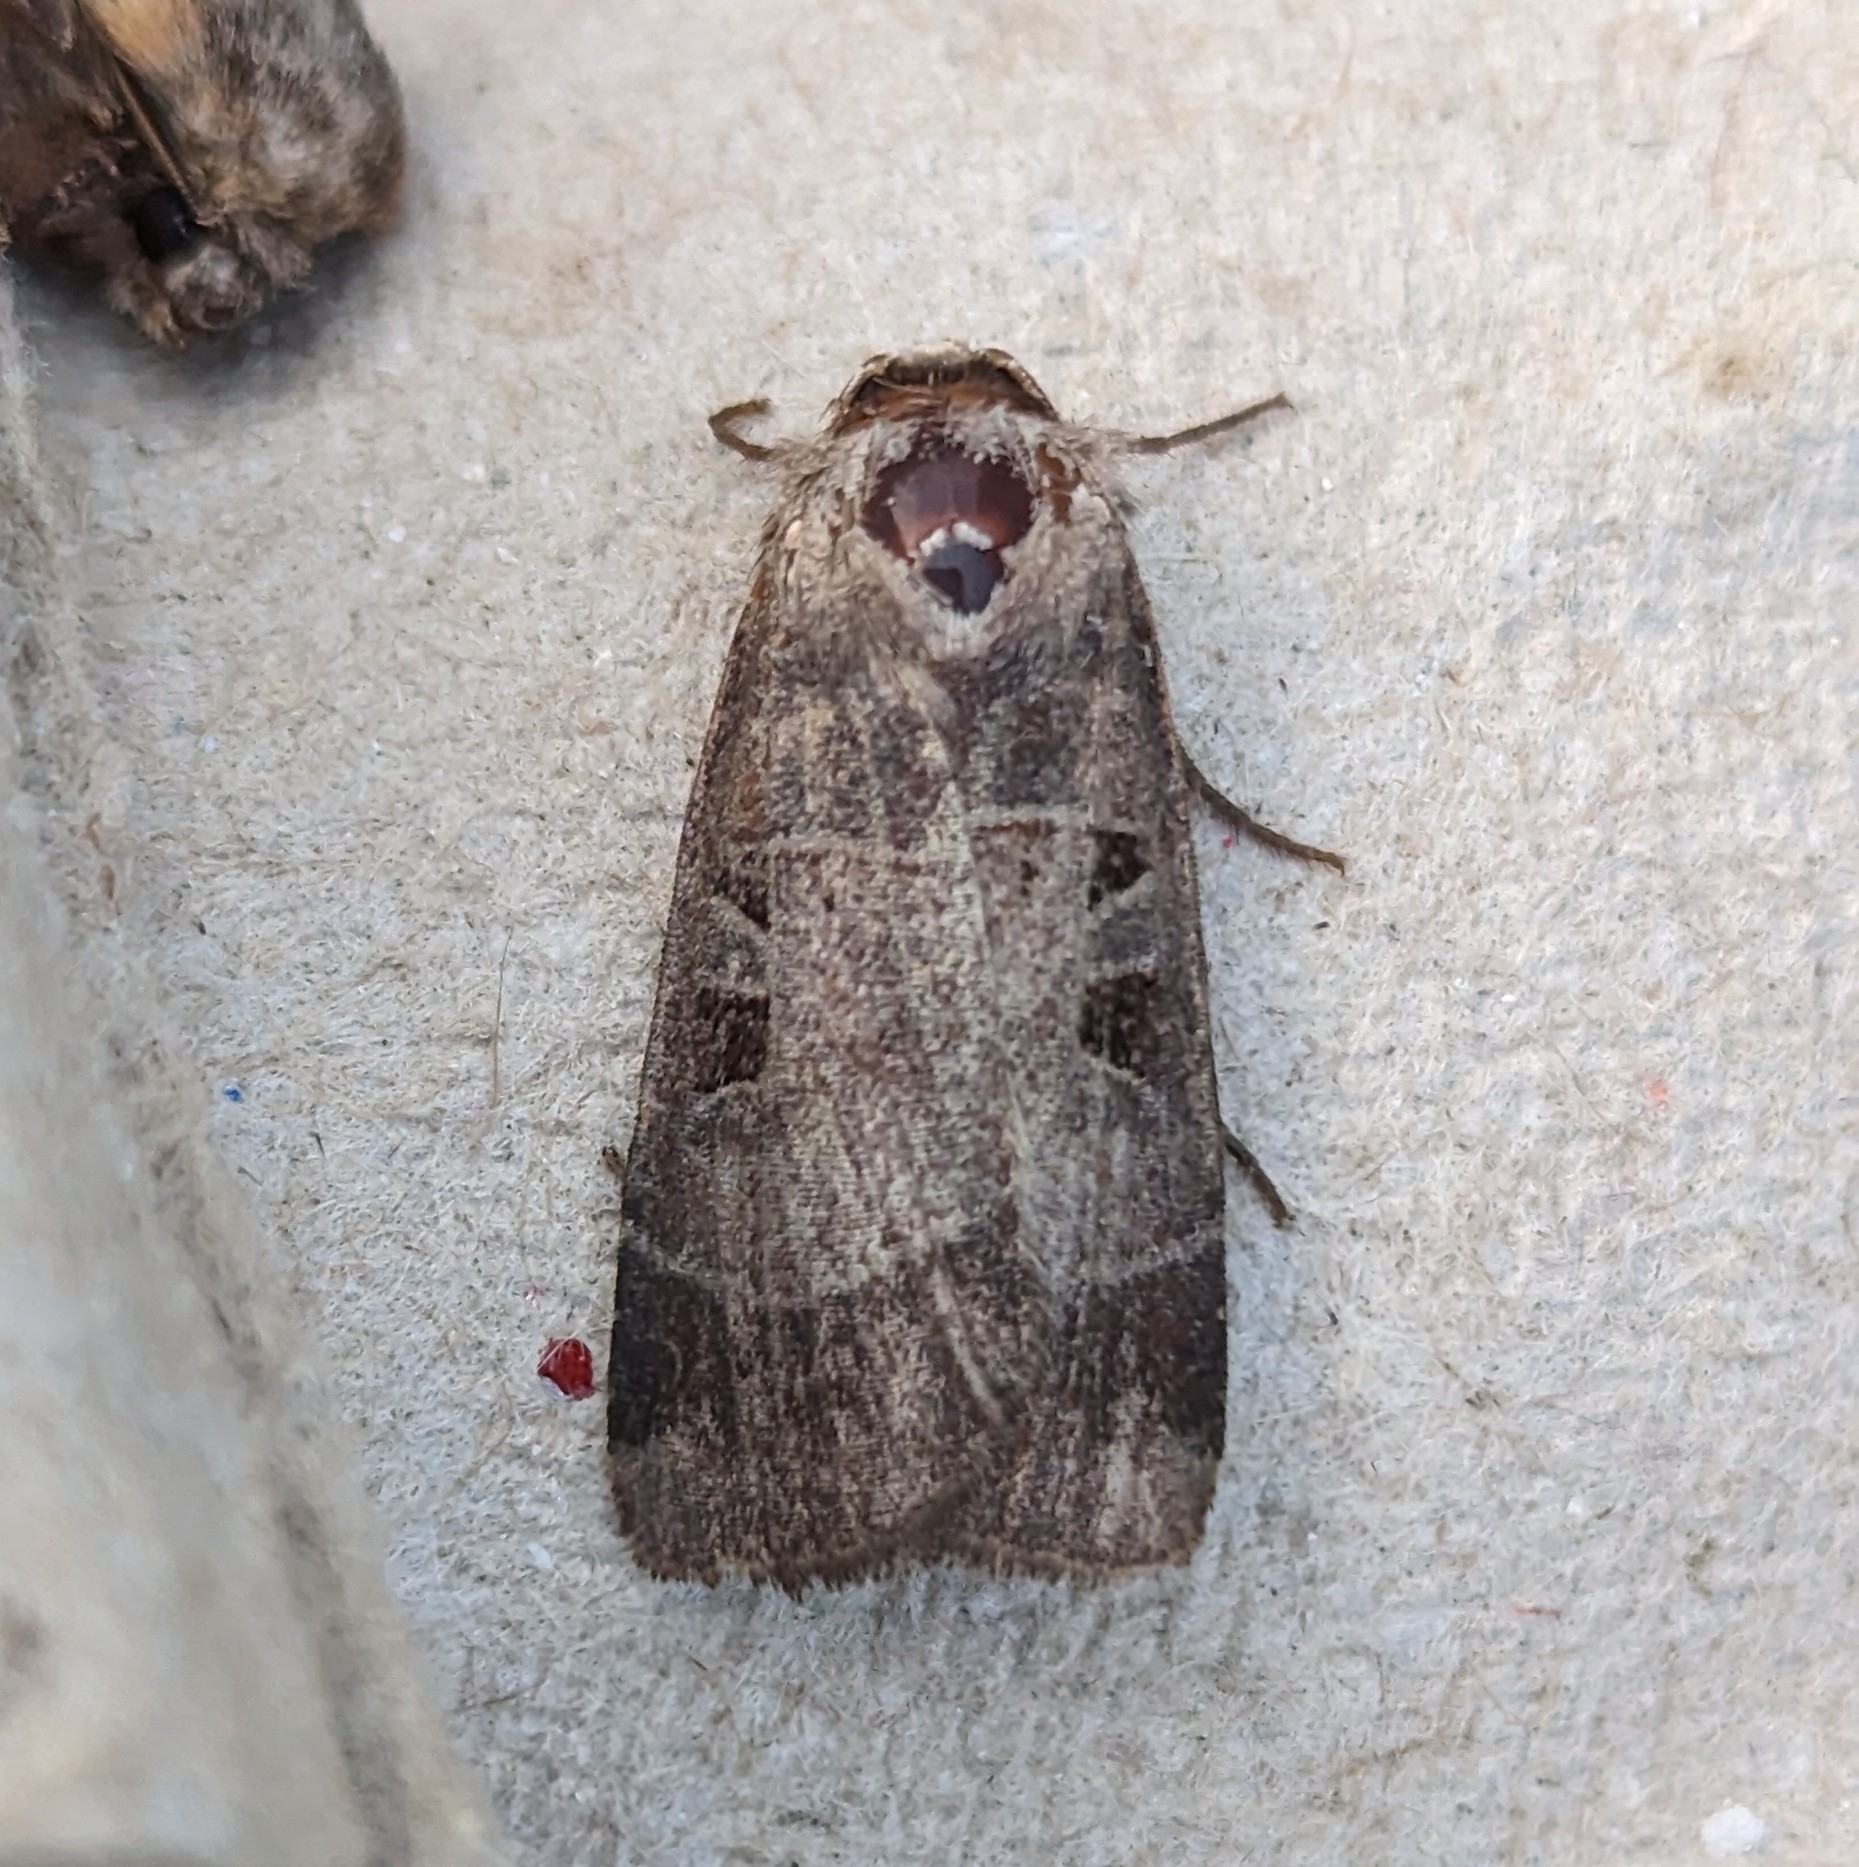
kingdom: Animalia
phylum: Arthropoda
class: Insecta
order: Lepidoptera
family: Noctuidae
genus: Agnorisma
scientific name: Agnorisma bugrai
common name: Collared dart
